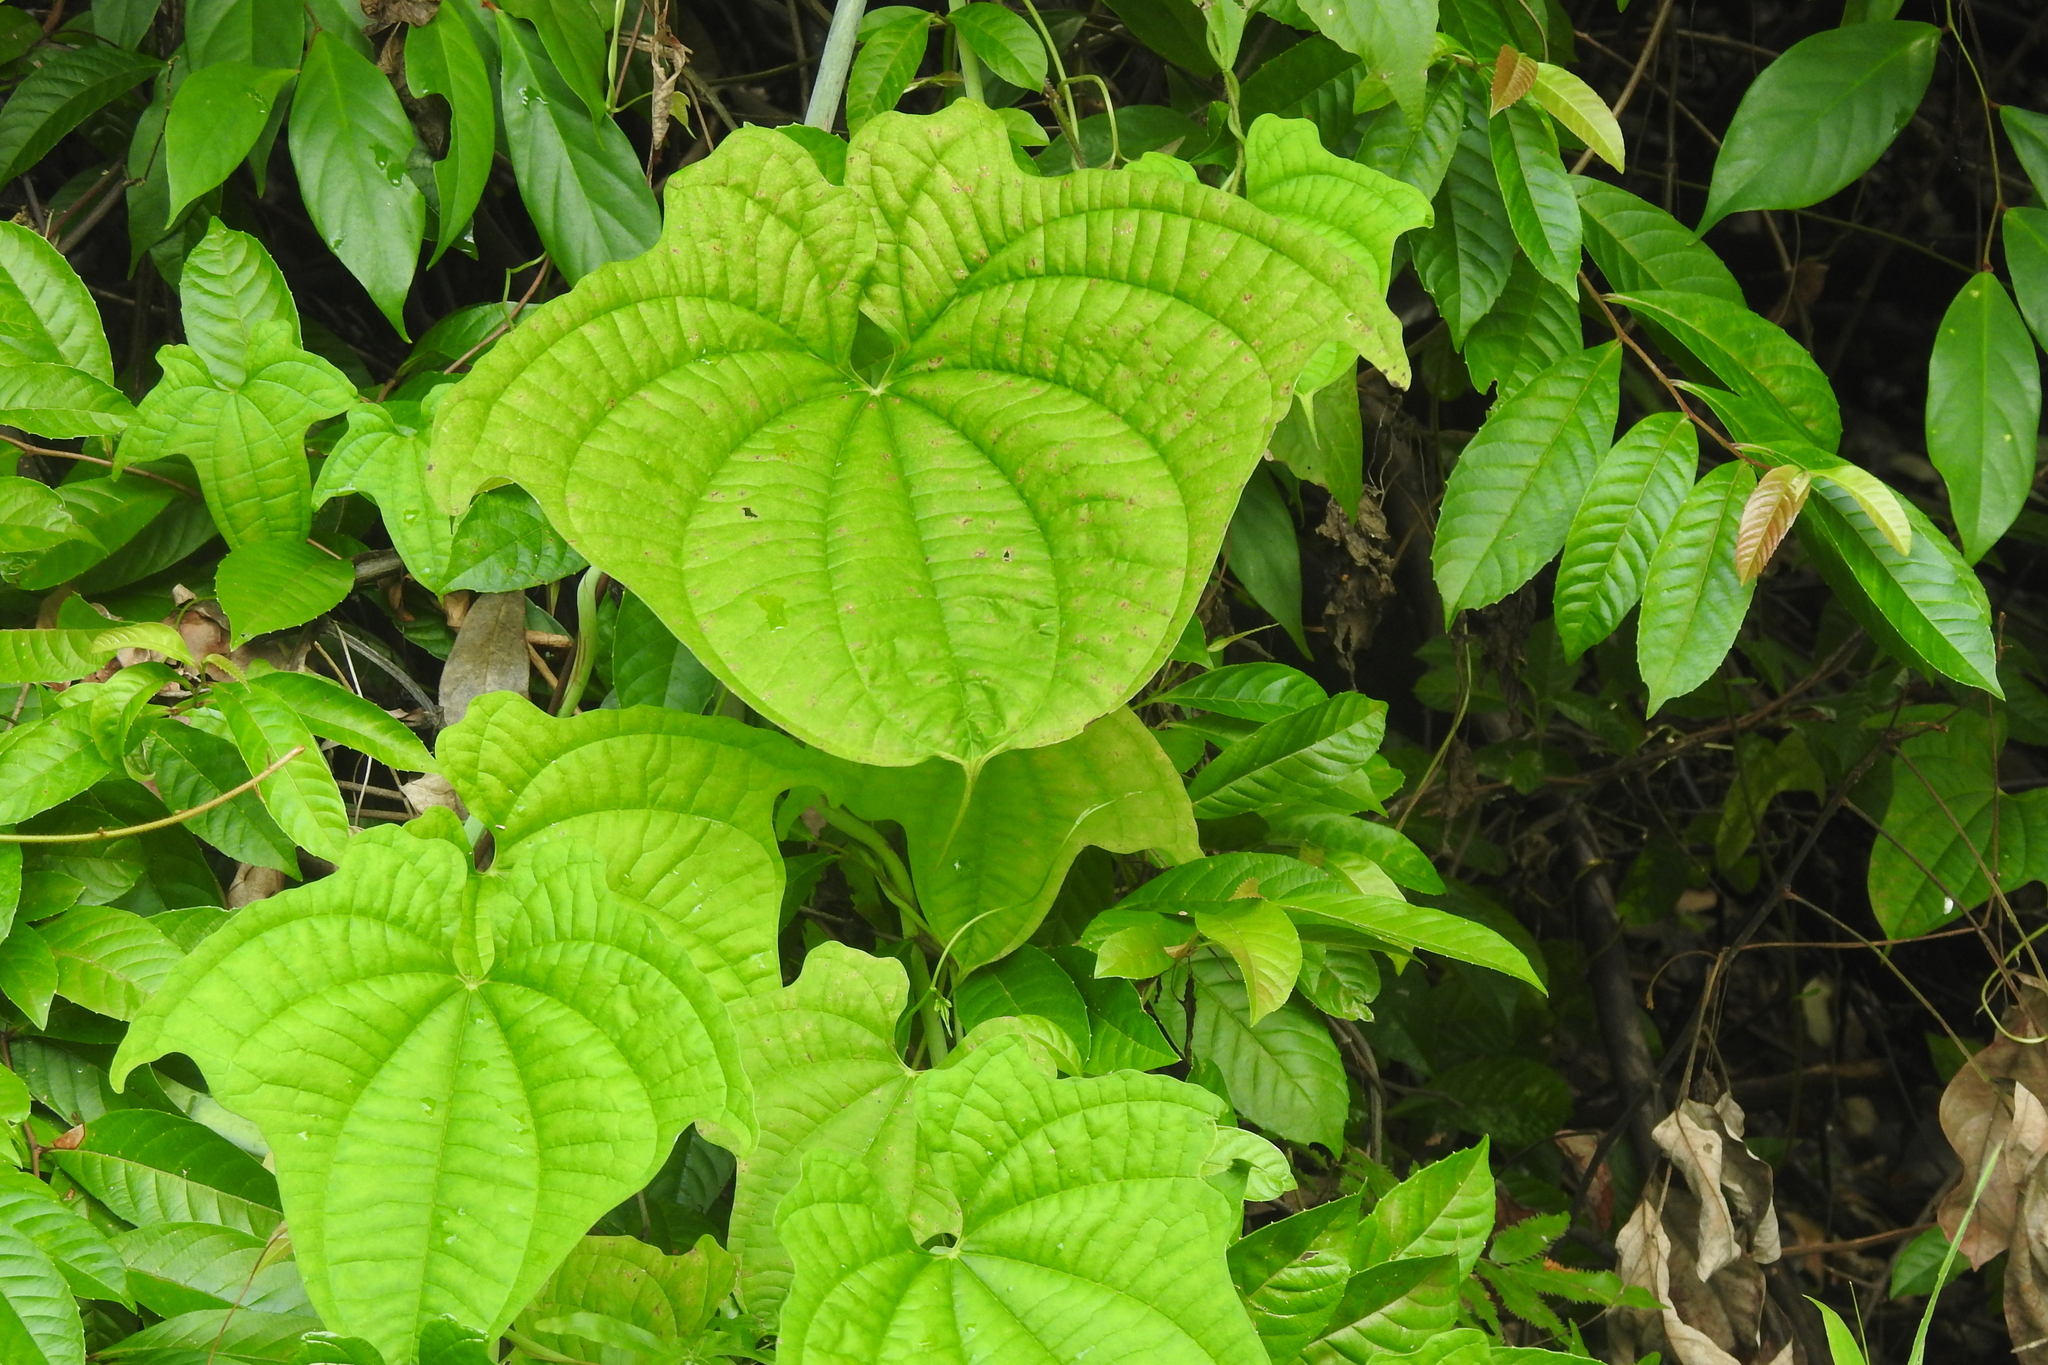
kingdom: Plantae
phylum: Tracheophyta
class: Liliopsida
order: Dioscoreales
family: Dioscoreaceae
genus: Dioscorea
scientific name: Dioscorea sansibarensis
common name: Zanzibar yam
